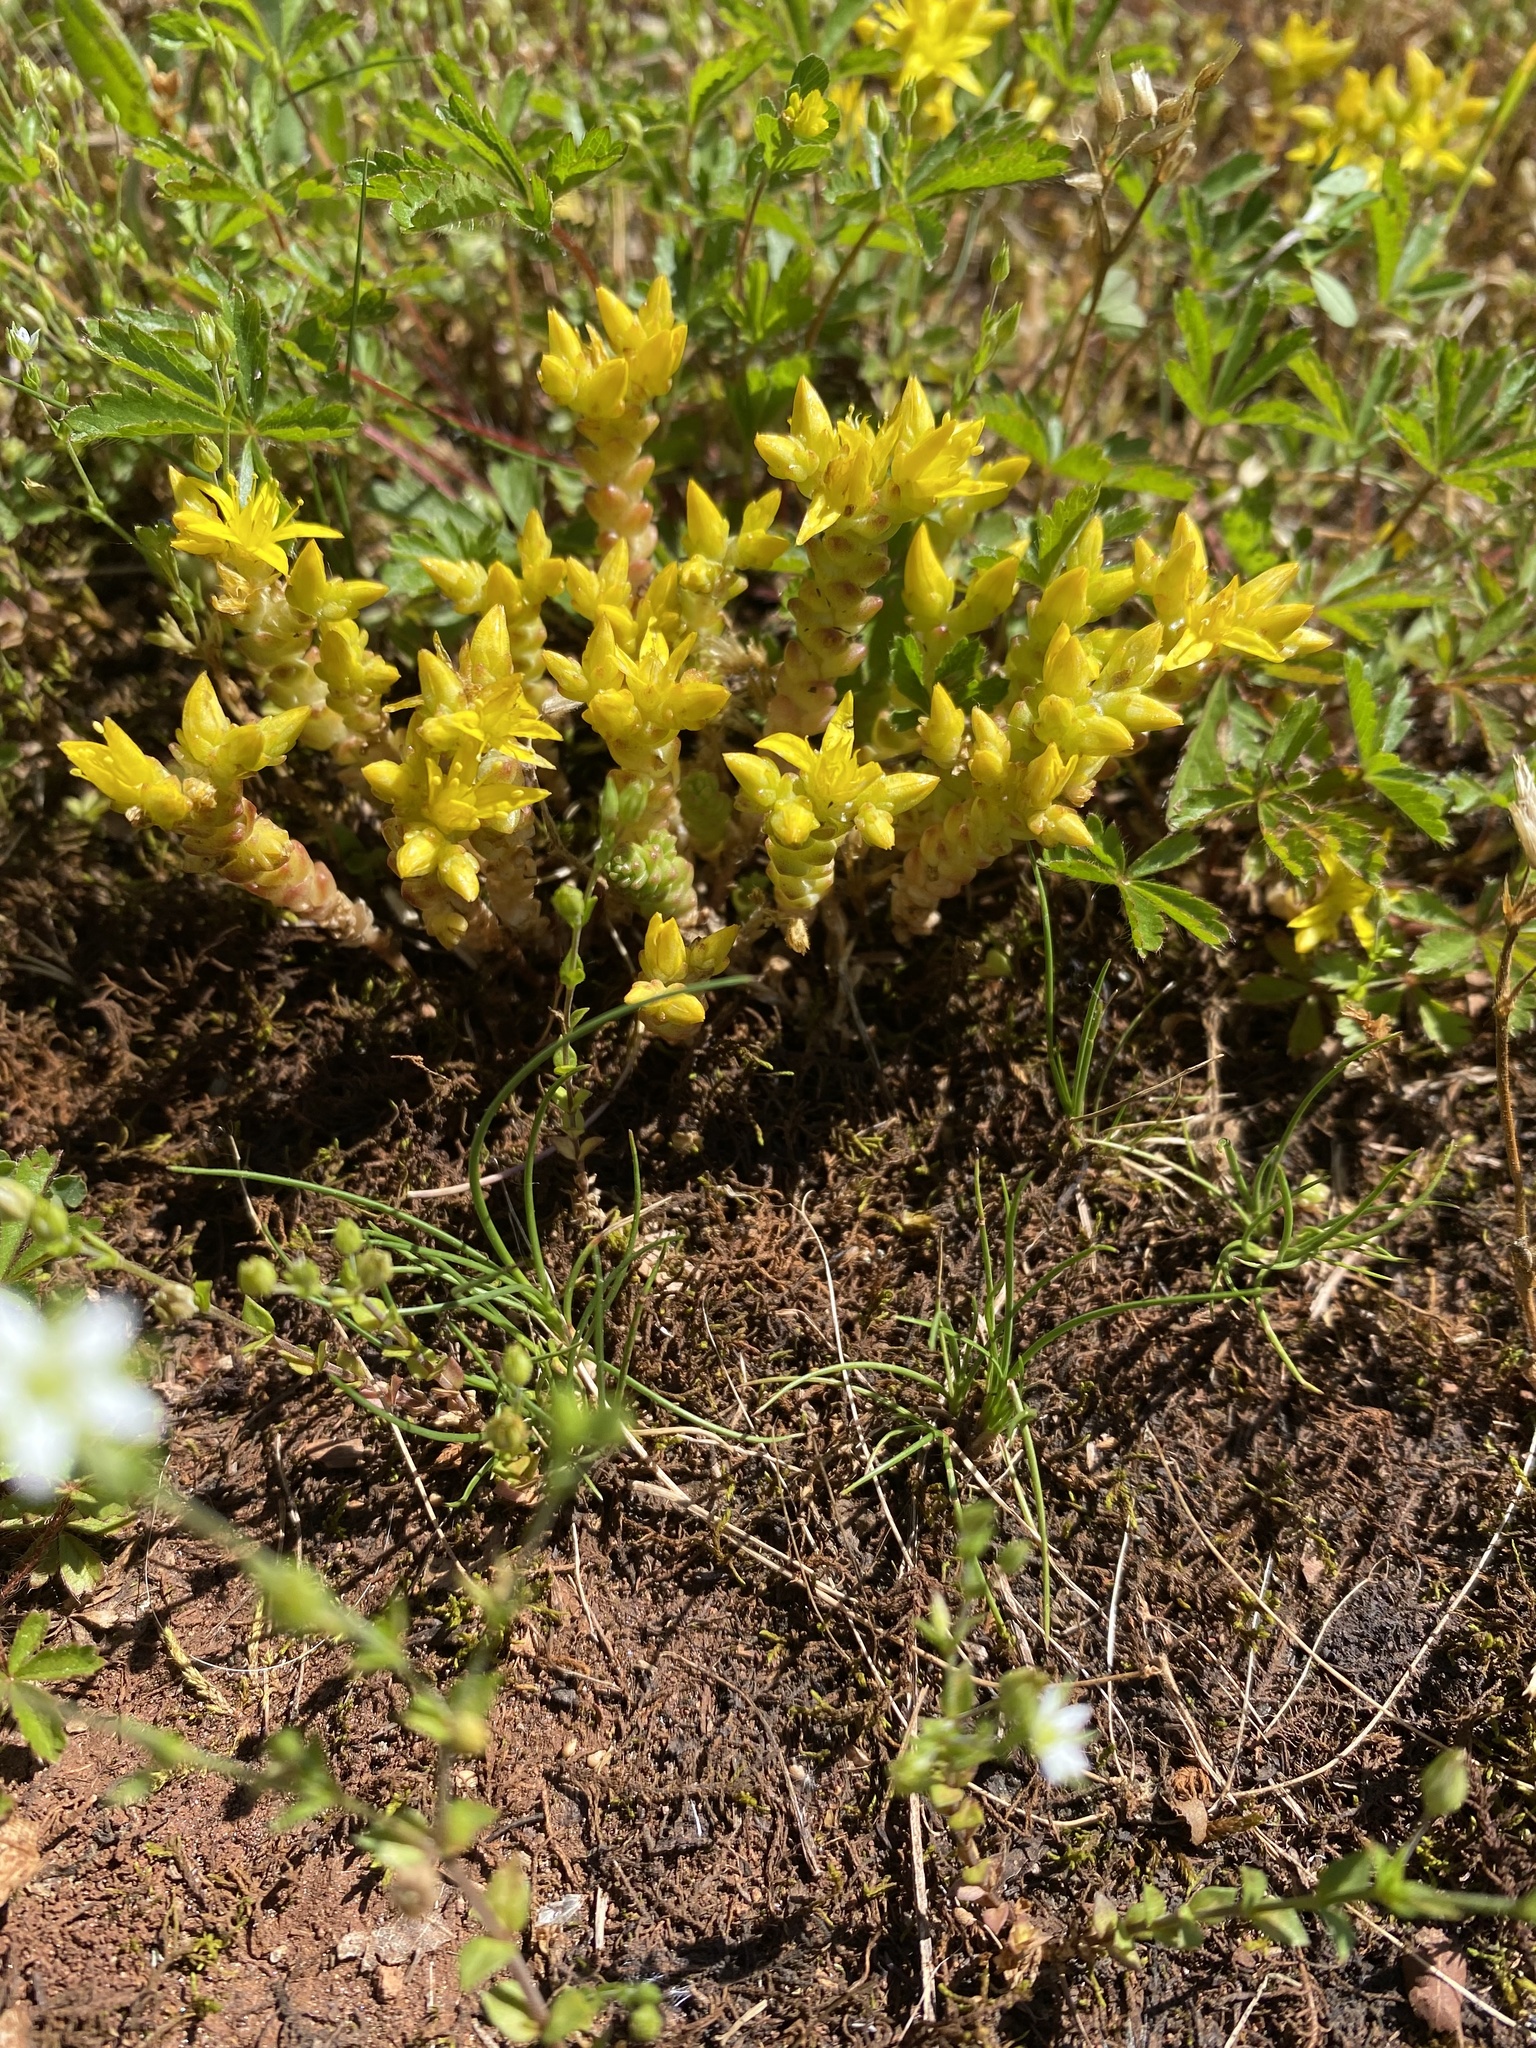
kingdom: Plantae
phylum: Tracheophyta
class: Magnoliopsida
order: Saxifragales
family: Crassulaceae
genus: Sedum
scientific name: Sedum acre
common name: Biting stonecrop
